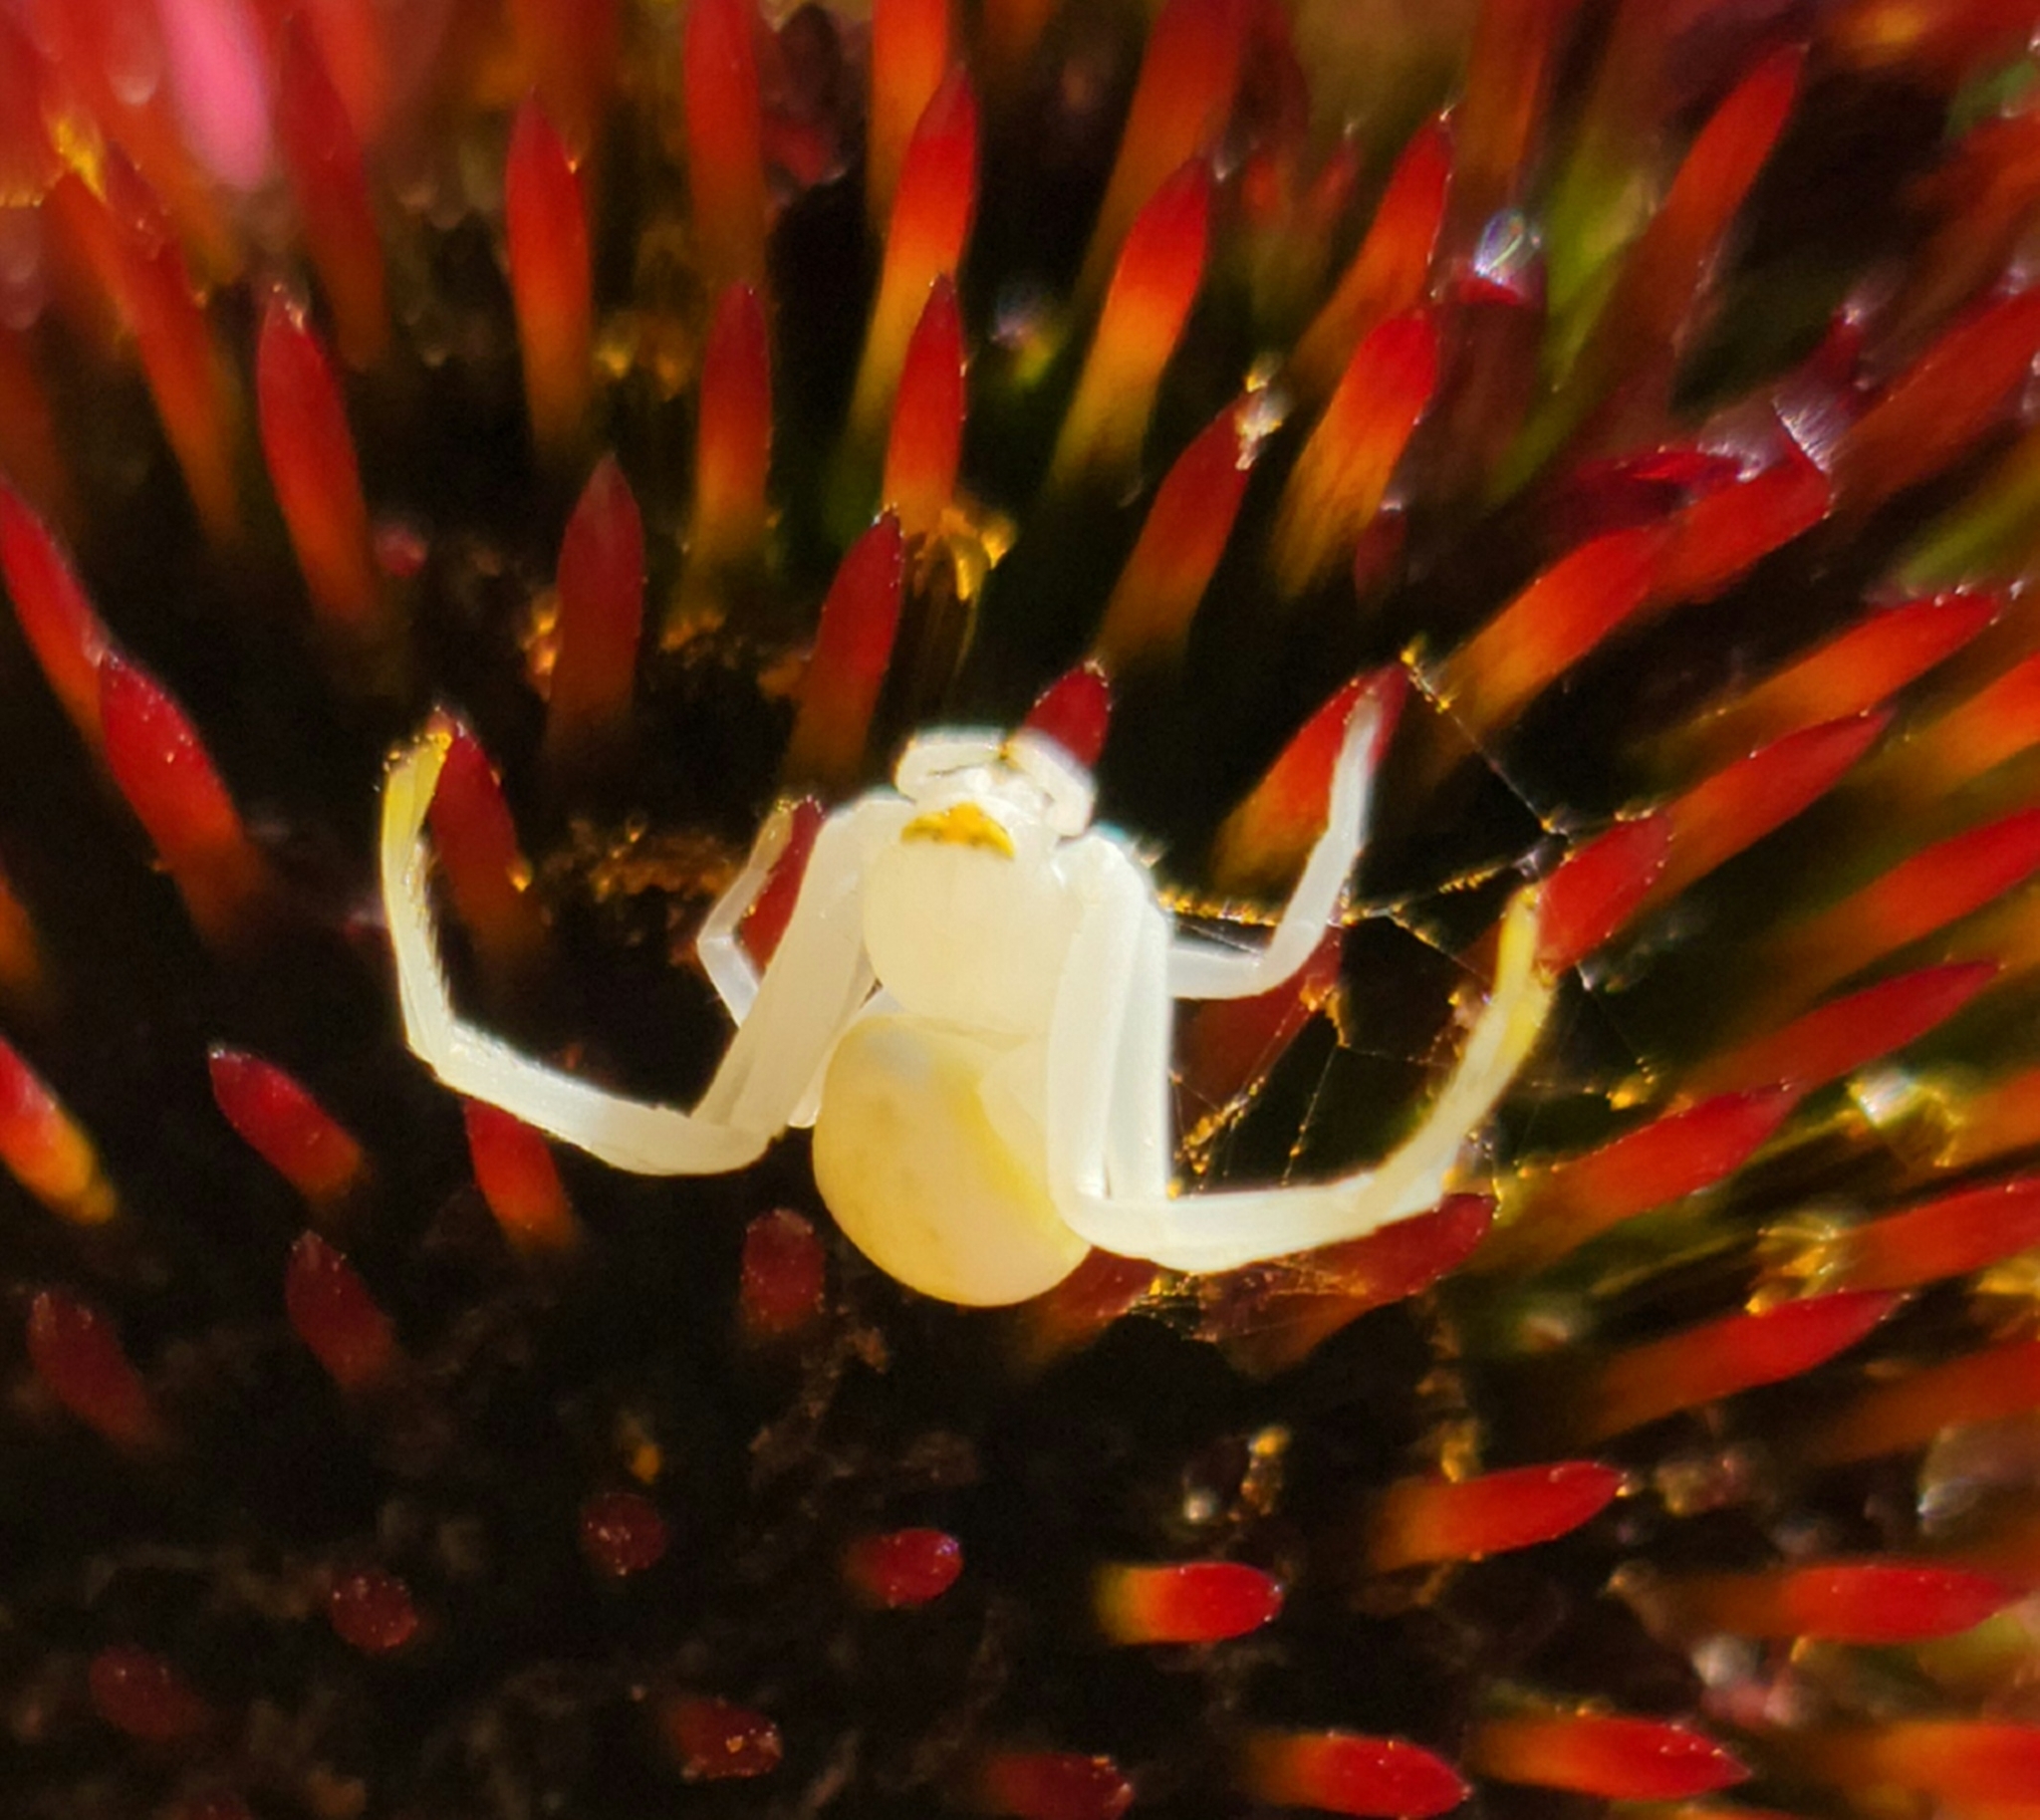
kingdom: Animalia
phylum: Arthropoda
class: Arachnida
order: Araneae
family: Thomisidae
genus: Misumessus
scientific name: Misumessus oblongus
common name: American green crab spider
